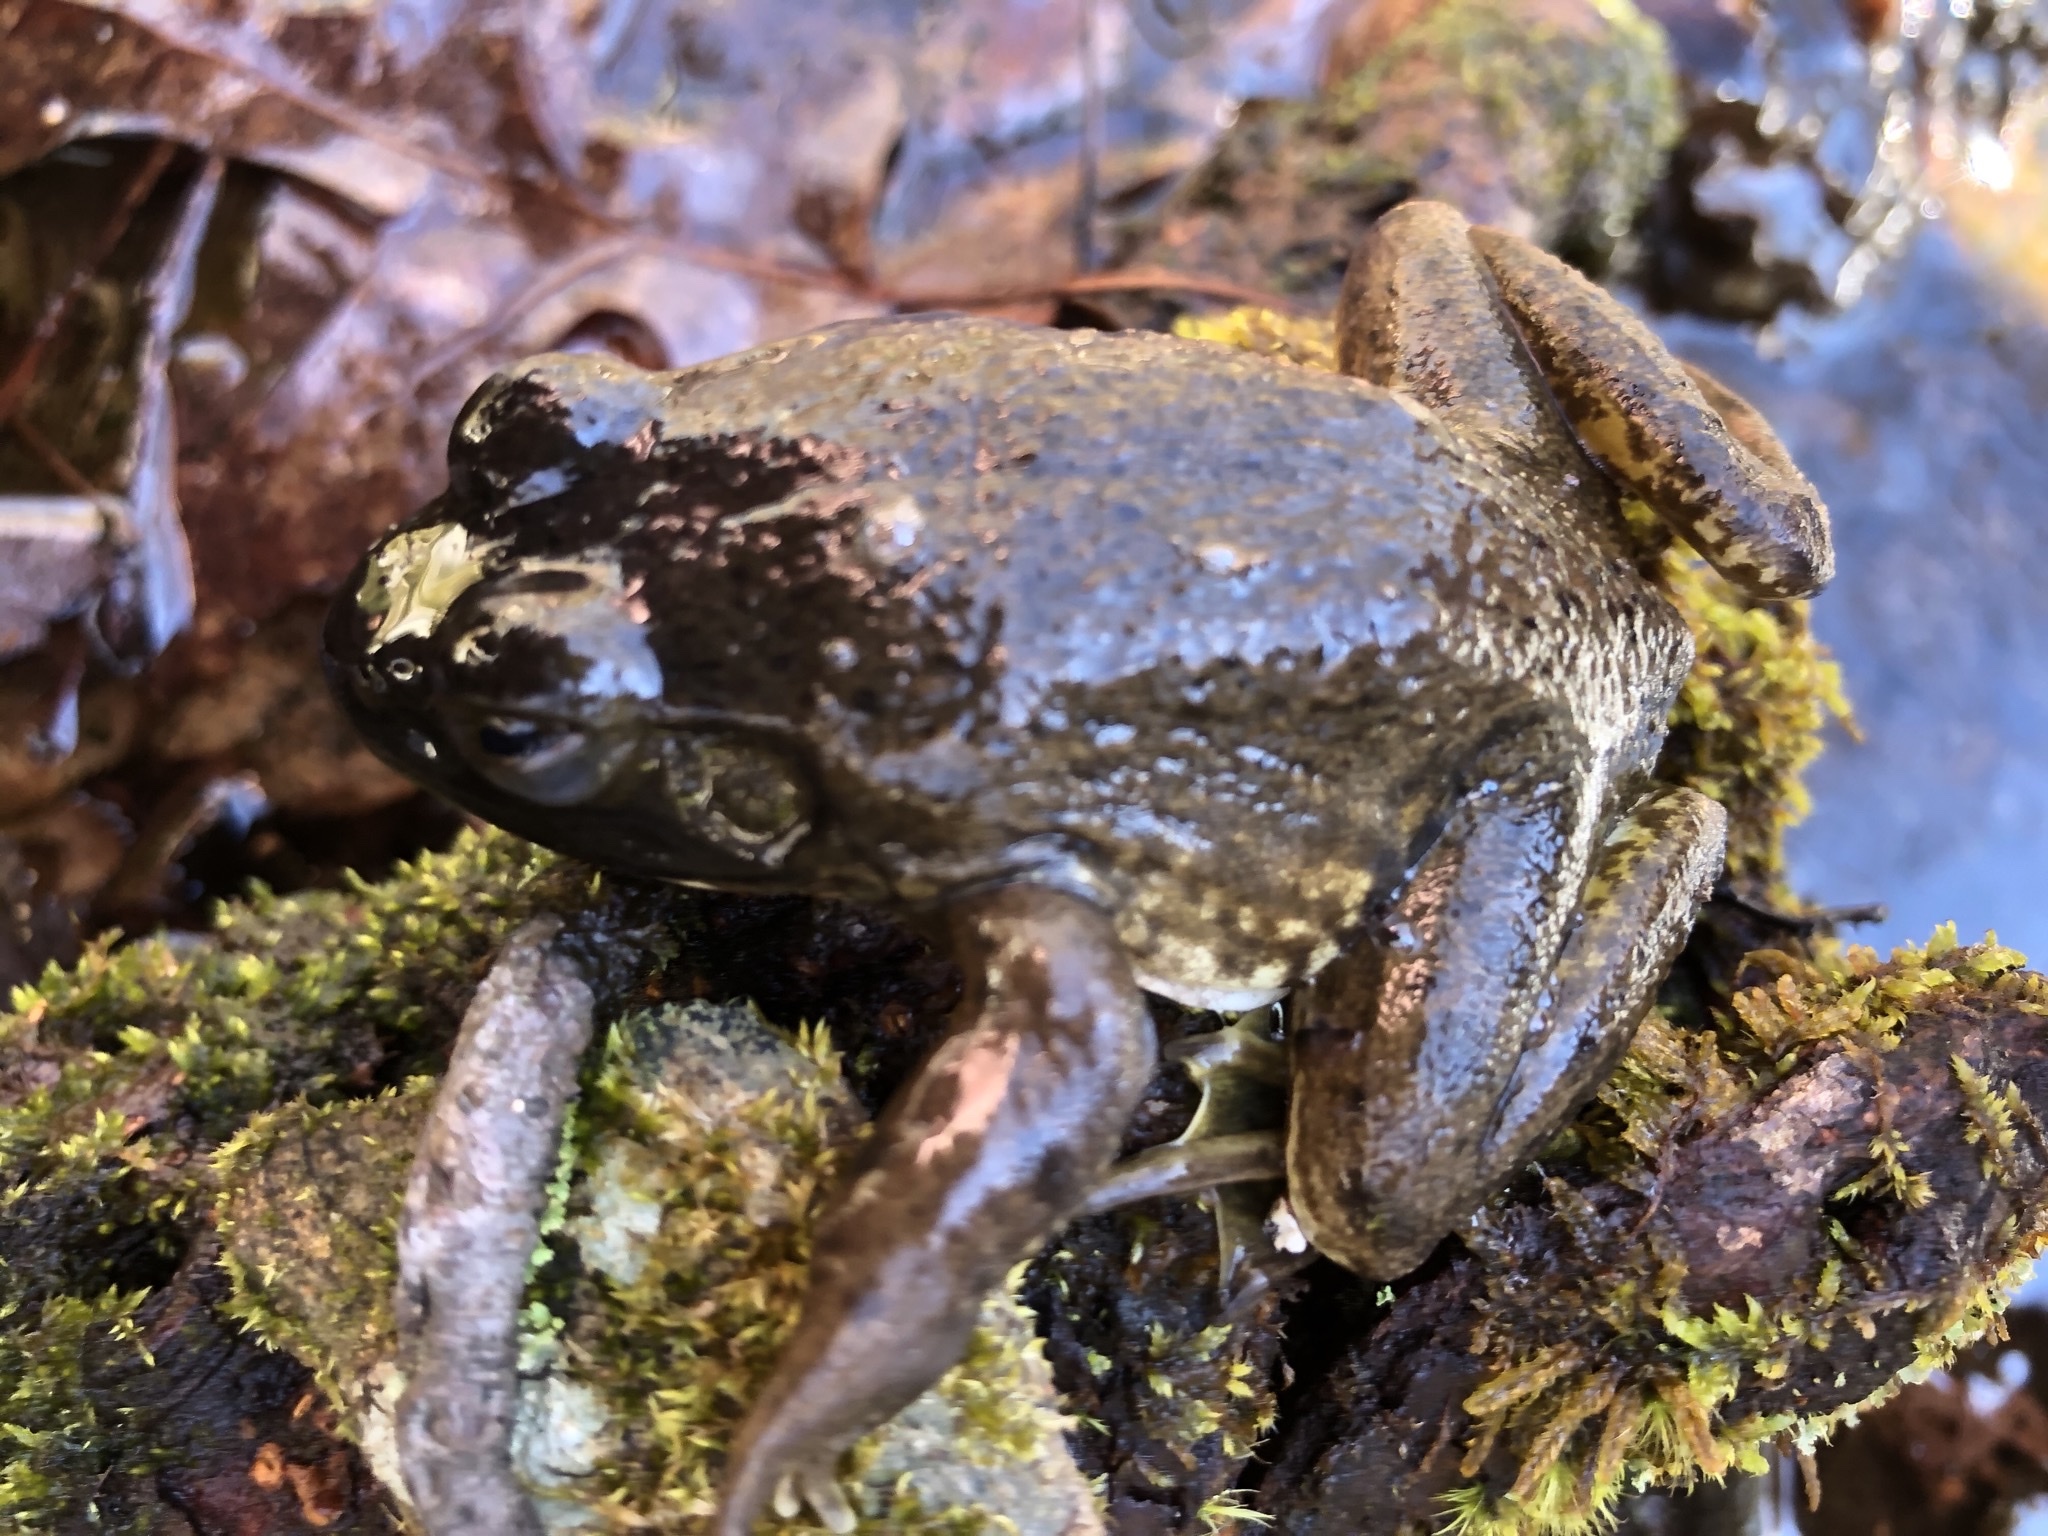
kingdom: Animalia
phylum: Chordata
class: Amphibia
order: Anura
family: Ranidae
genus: Lithobates
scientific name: Lithobates catesbeianus
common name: American bullfrog
